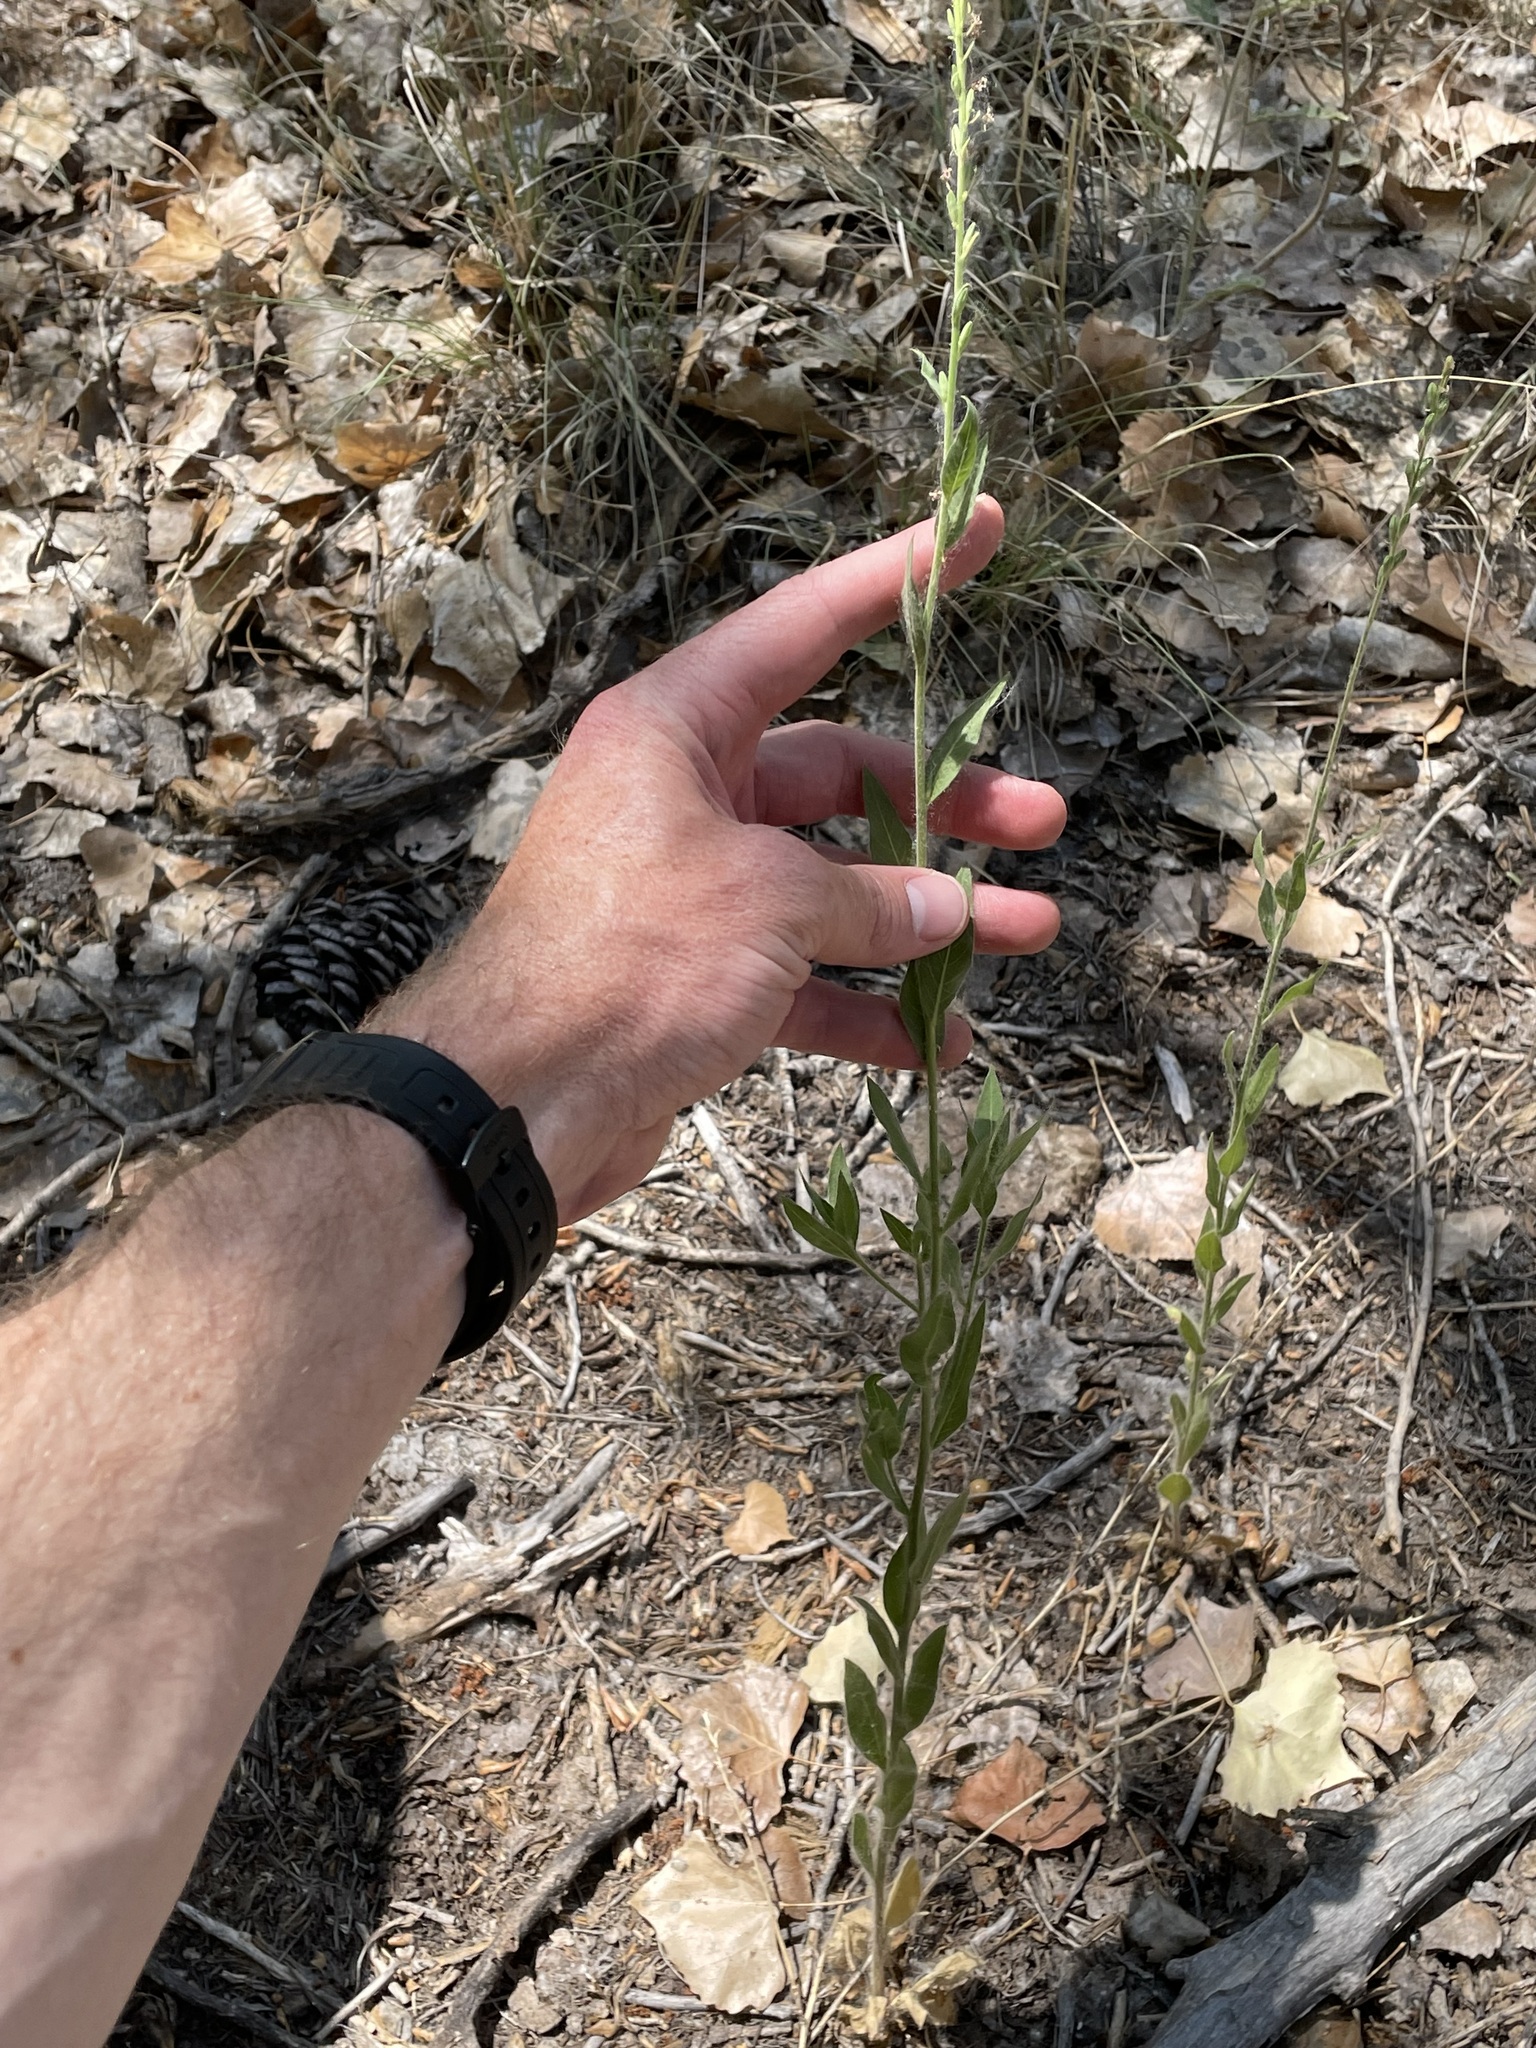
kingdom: Plantae
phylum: Tracheophyta
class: Magnoliopsida
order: Myrtales
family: Onagraceae
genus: Oenothera
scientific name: Oenothera curtiflora
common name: Velvetweed
